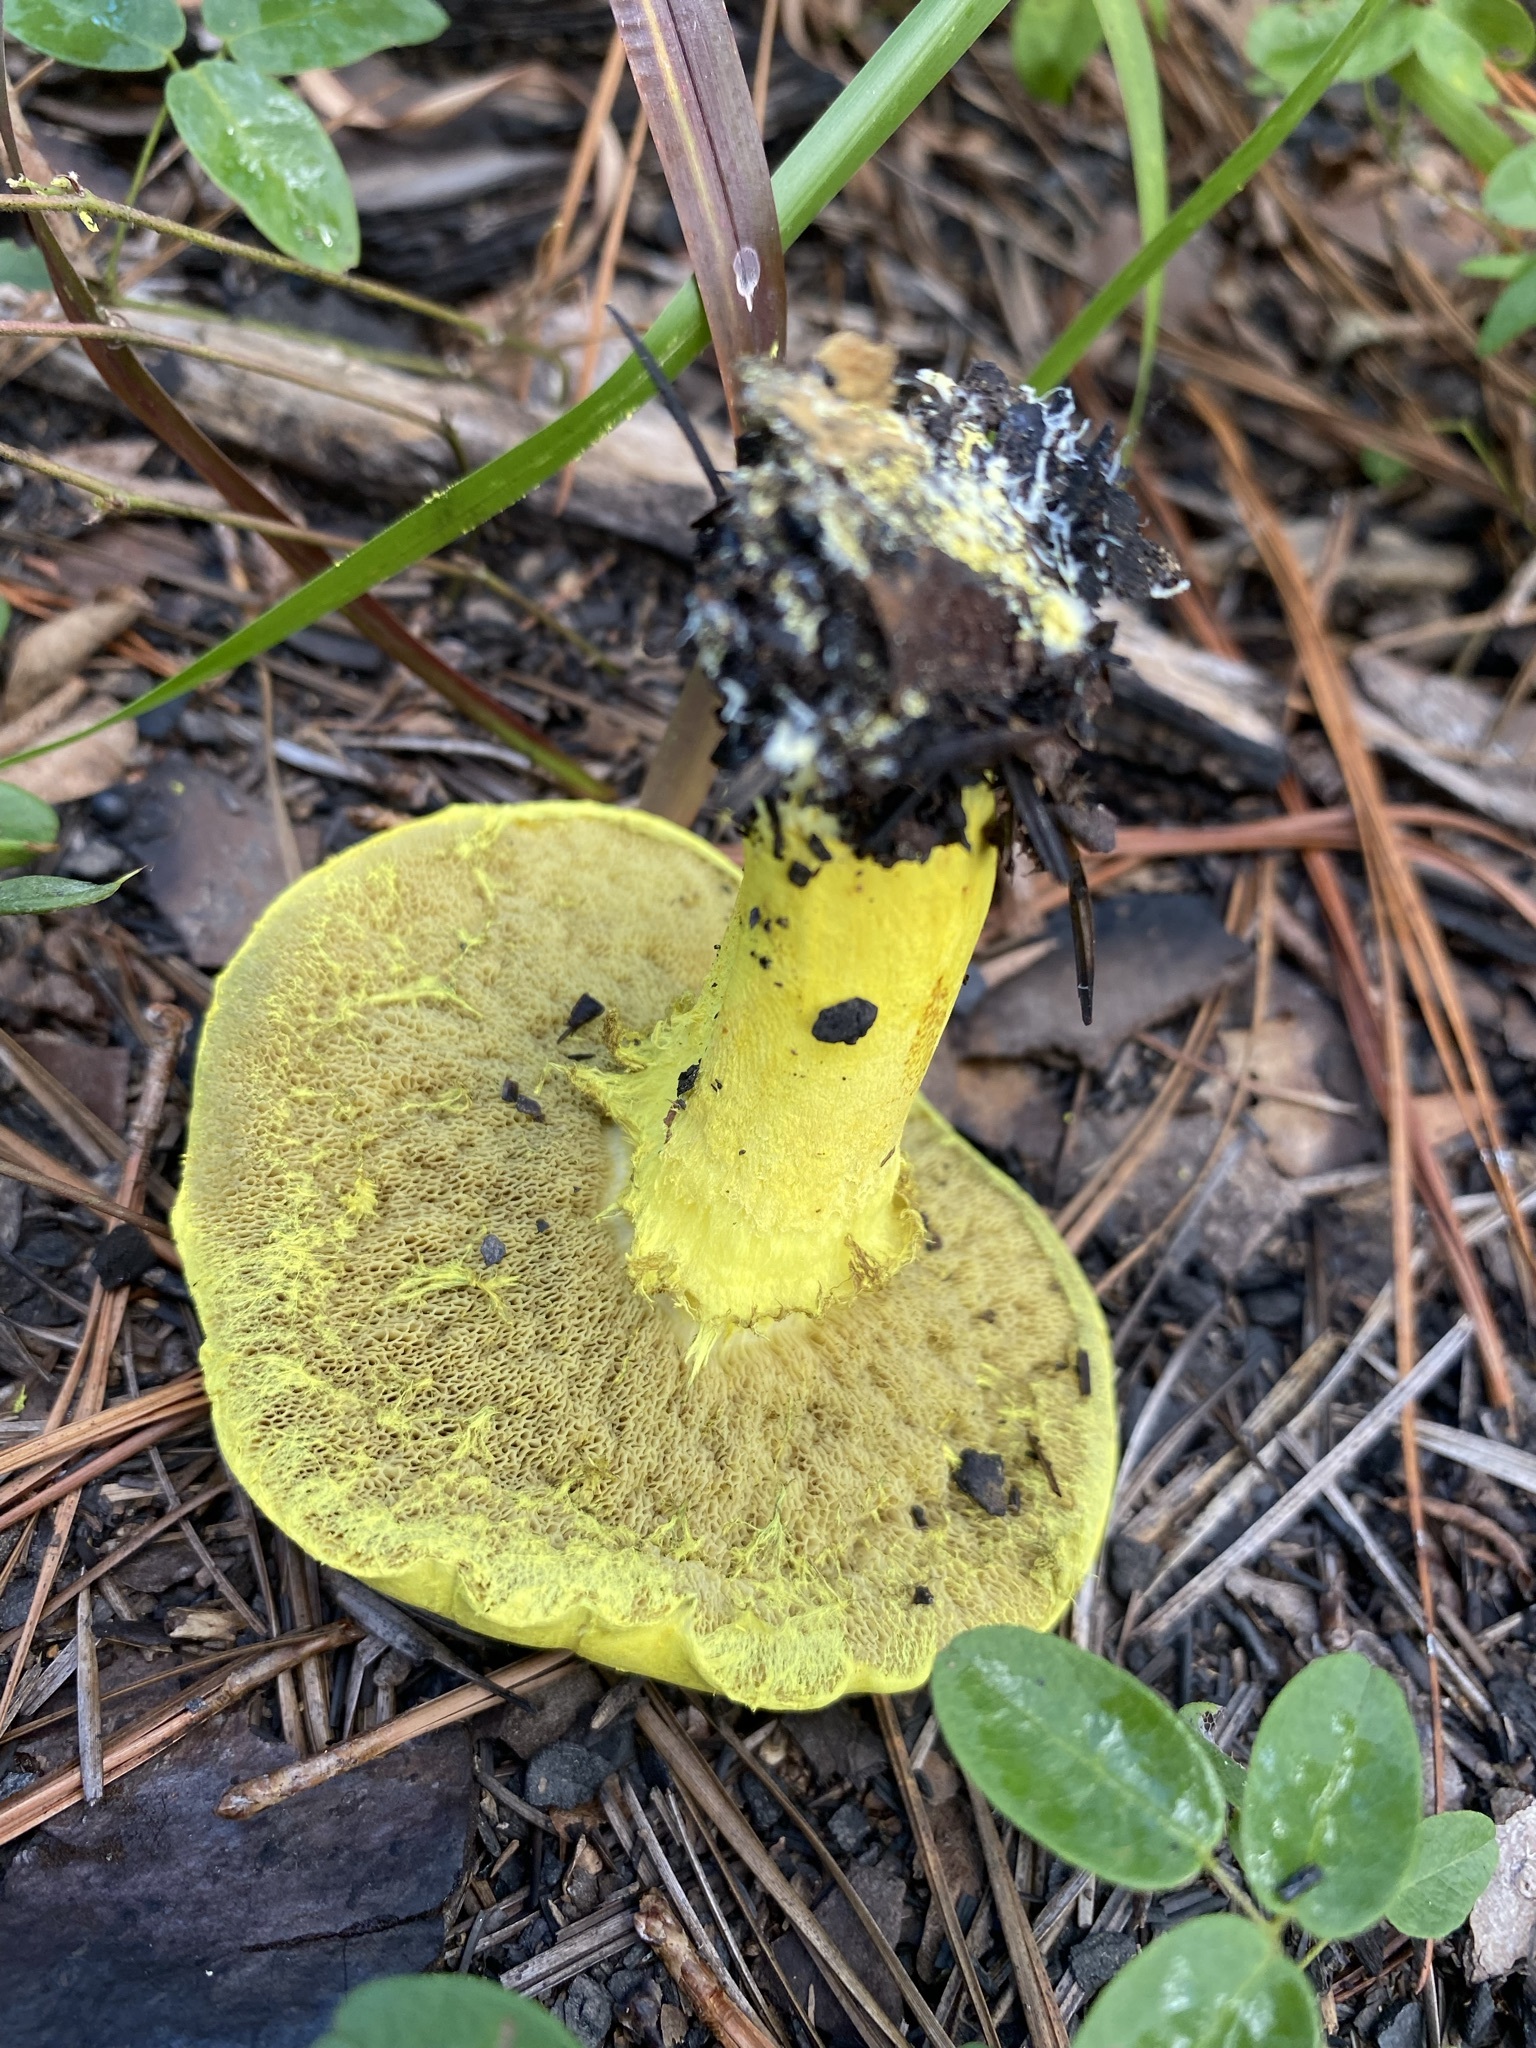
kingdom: Fungi
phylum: Basidiomycota
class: Agaricomycetes
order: Boletales
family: Boletaceae
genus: Pulveroboletus
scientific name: Pulveroboletus ravenelii
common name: Powdery sulfur bolete
